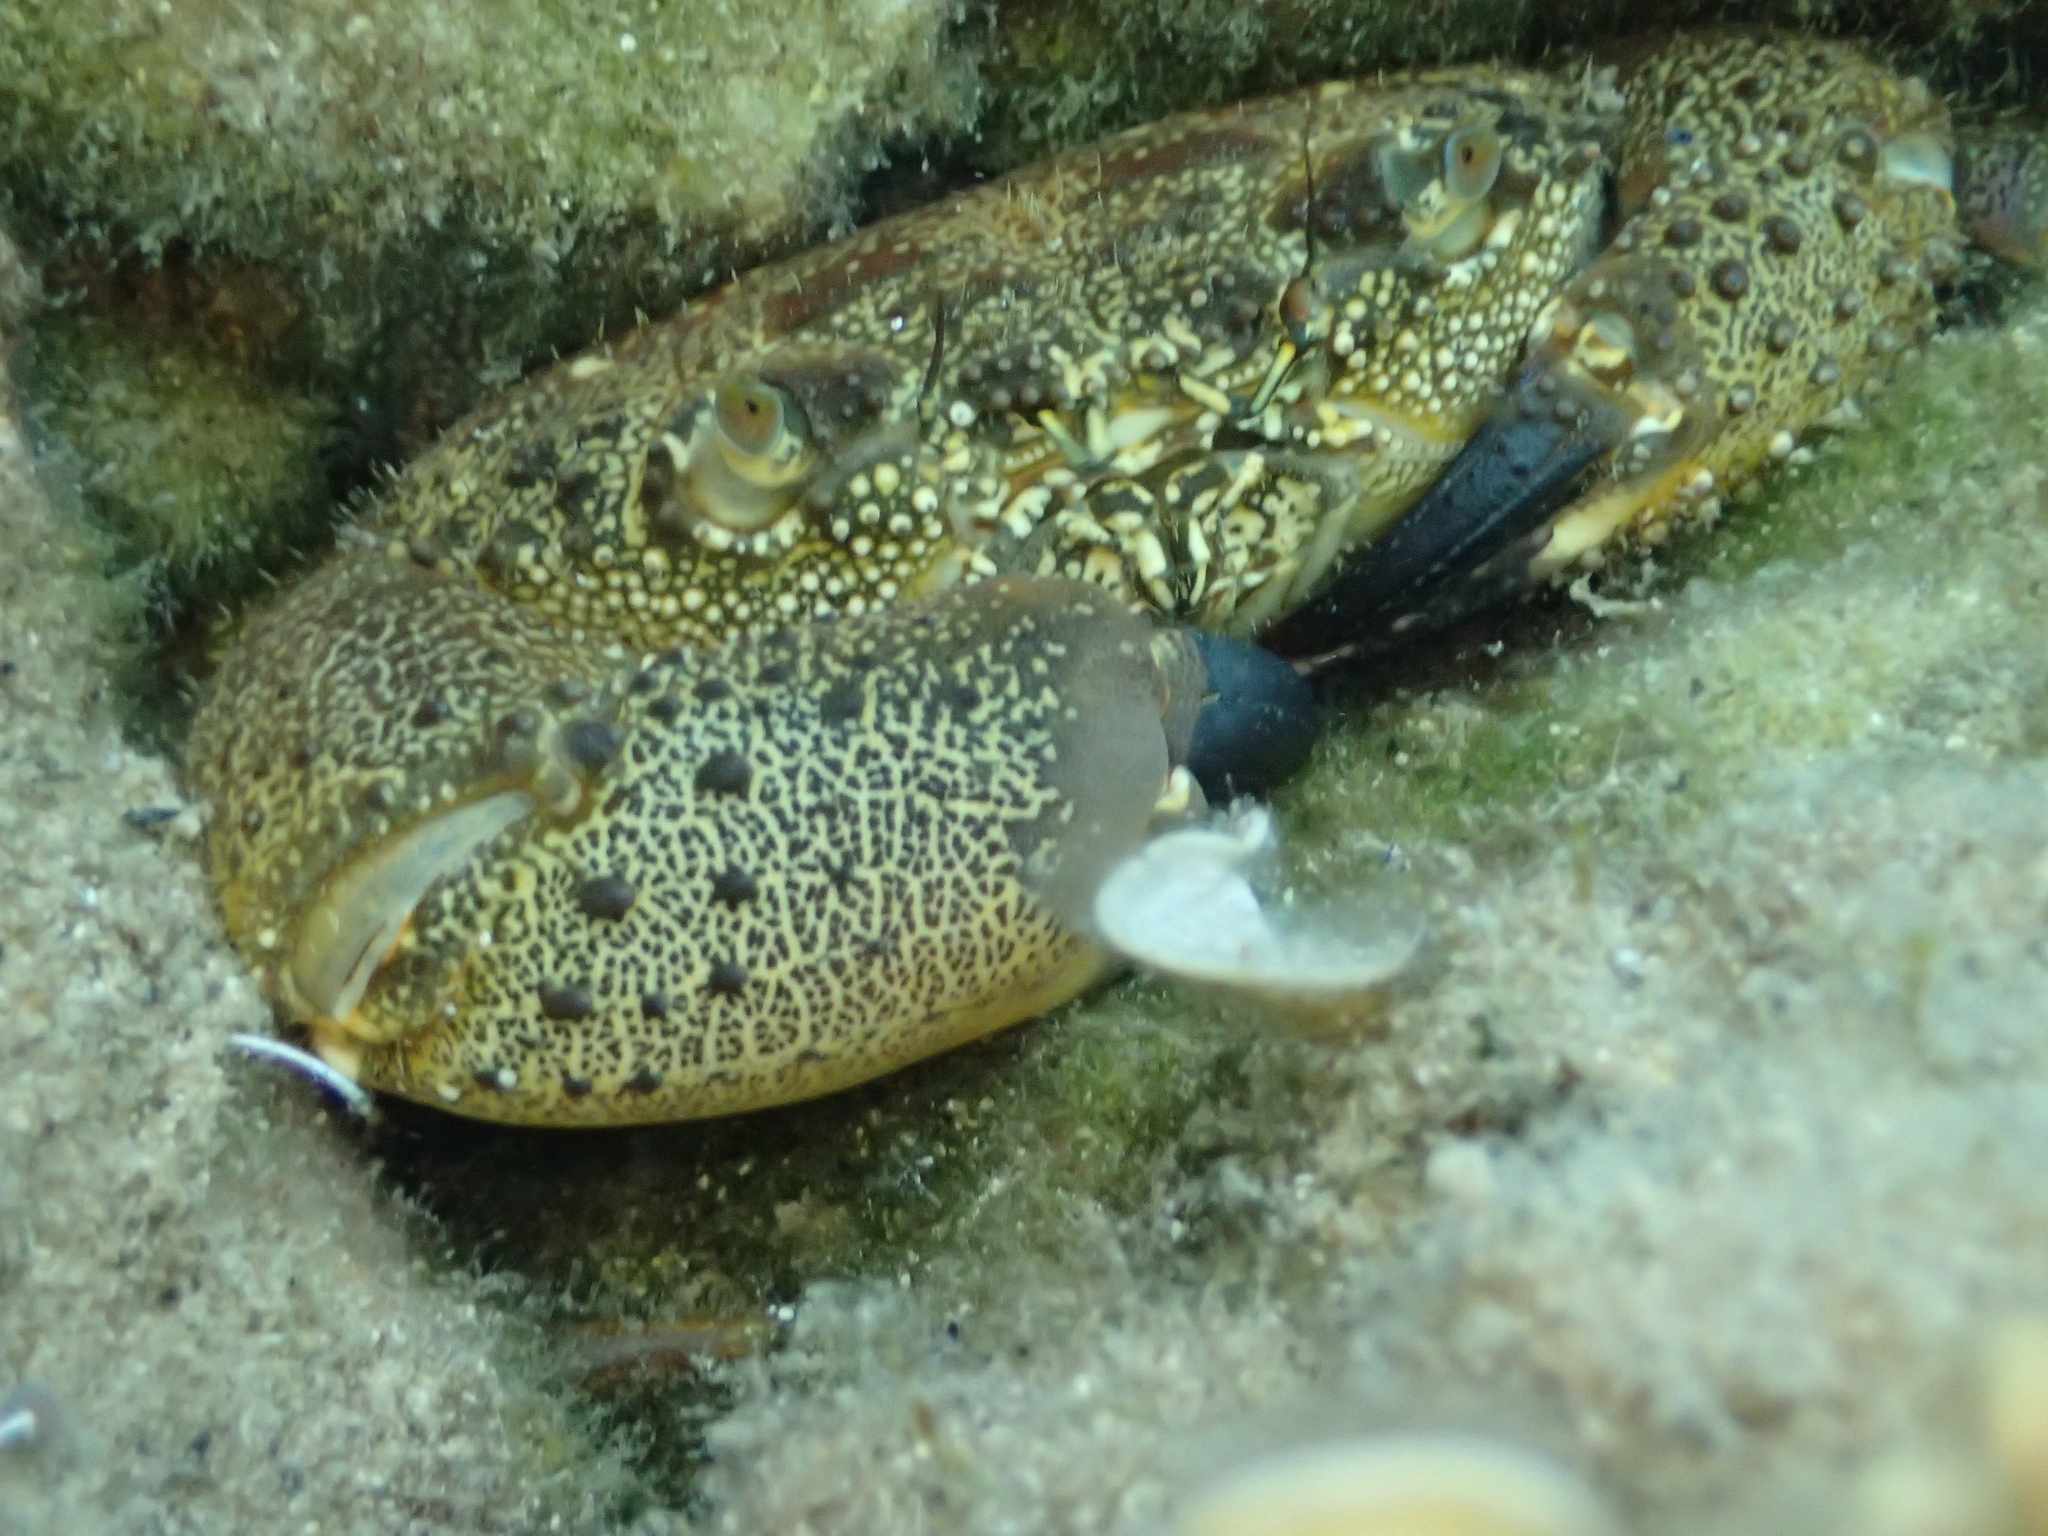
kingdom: Animalia
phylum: Arthropoda
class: Malacostraca
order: Decapoda
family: Eriphiidae
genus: Eriphia
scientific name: Eriphia verrucosa
